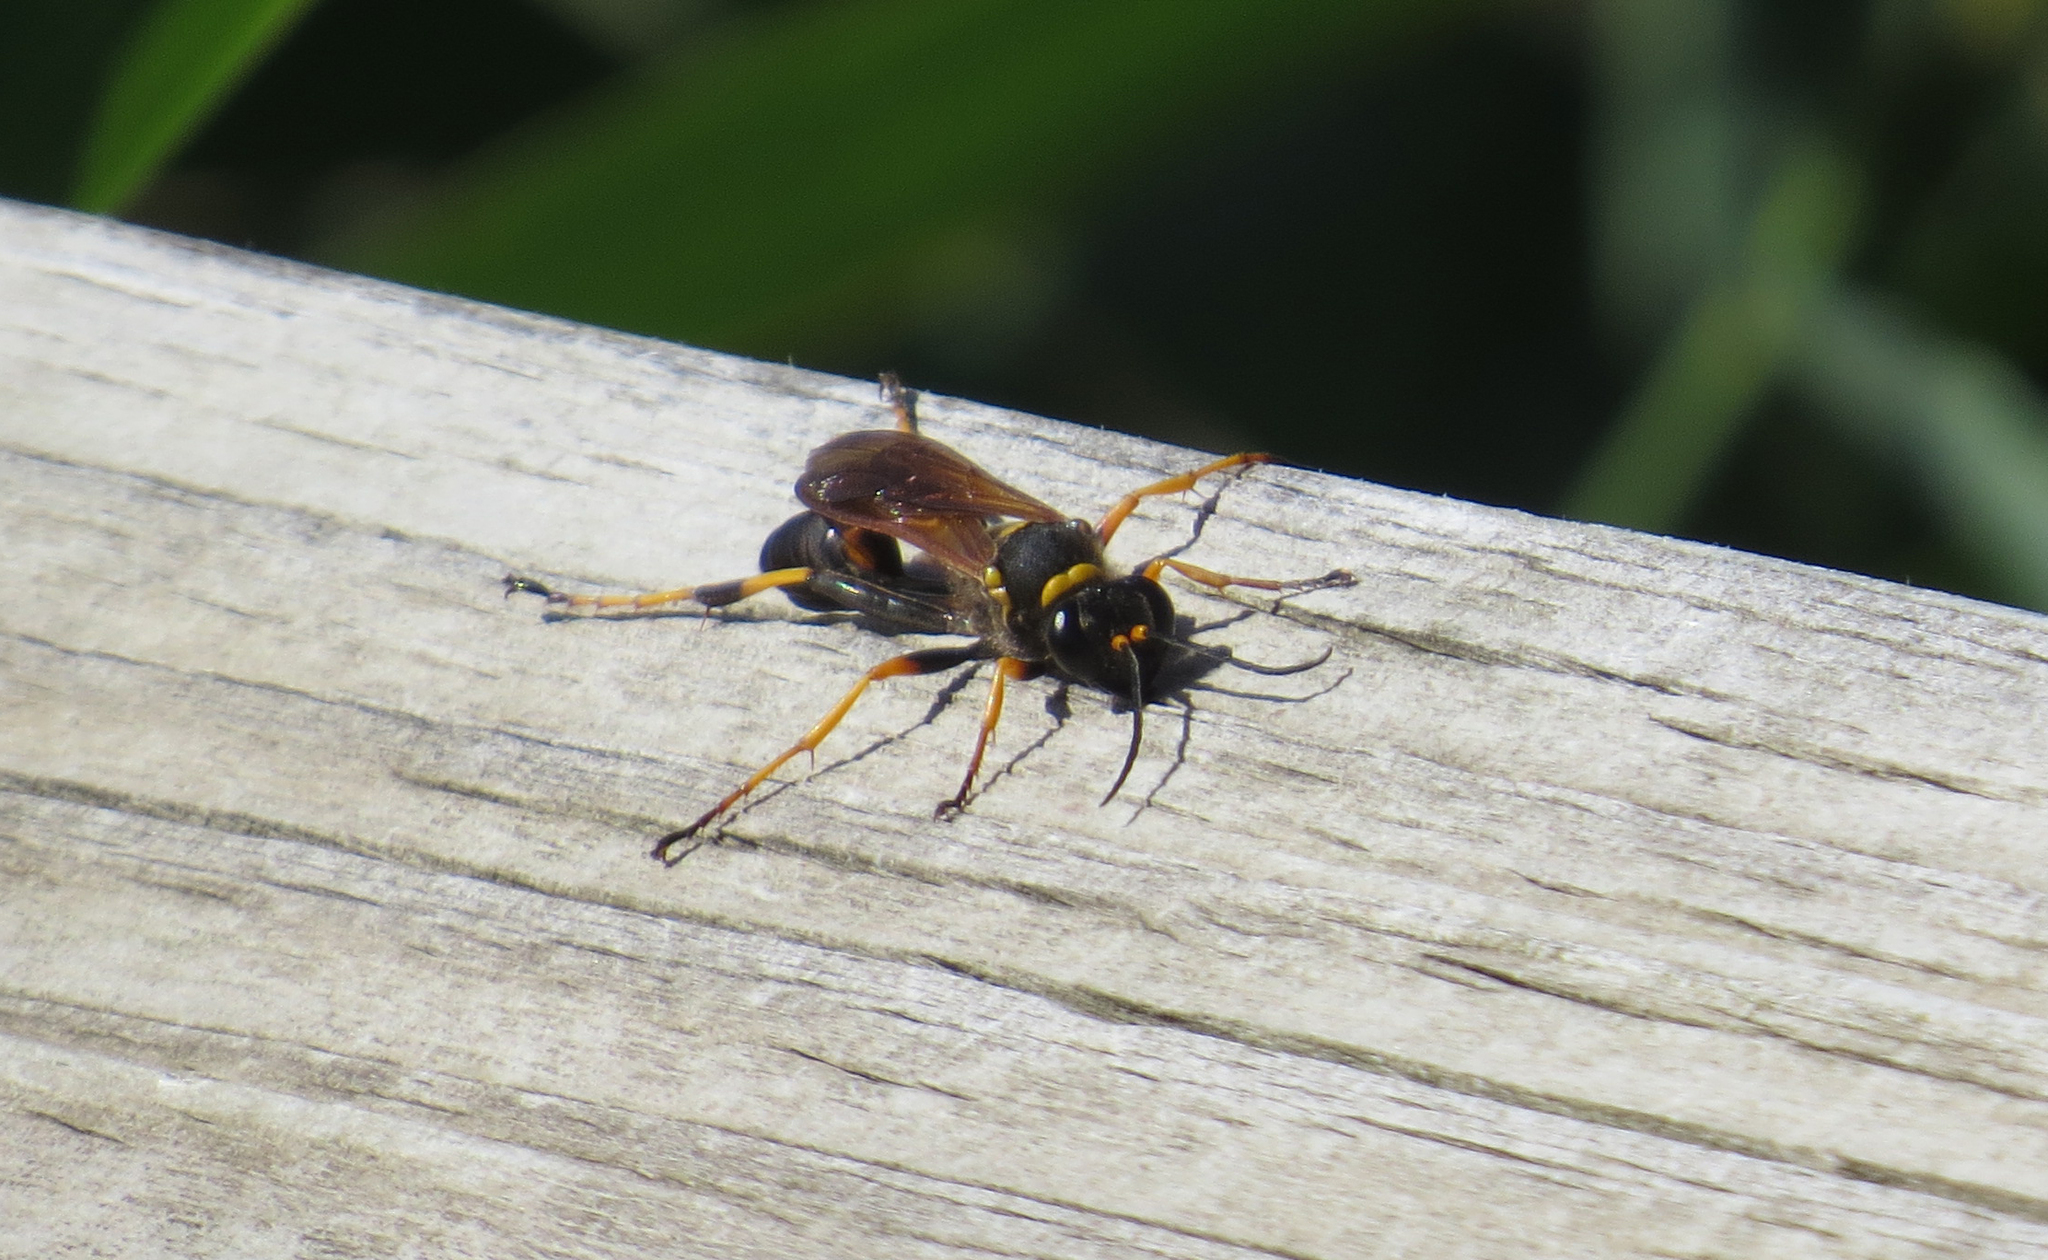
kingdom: Animalia
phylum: Arthropoda
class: Insecta
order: Hymenoptera
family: Sphecidae
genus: Sceliphron
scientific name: Sceliphron caementarium
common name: Mud dauber
